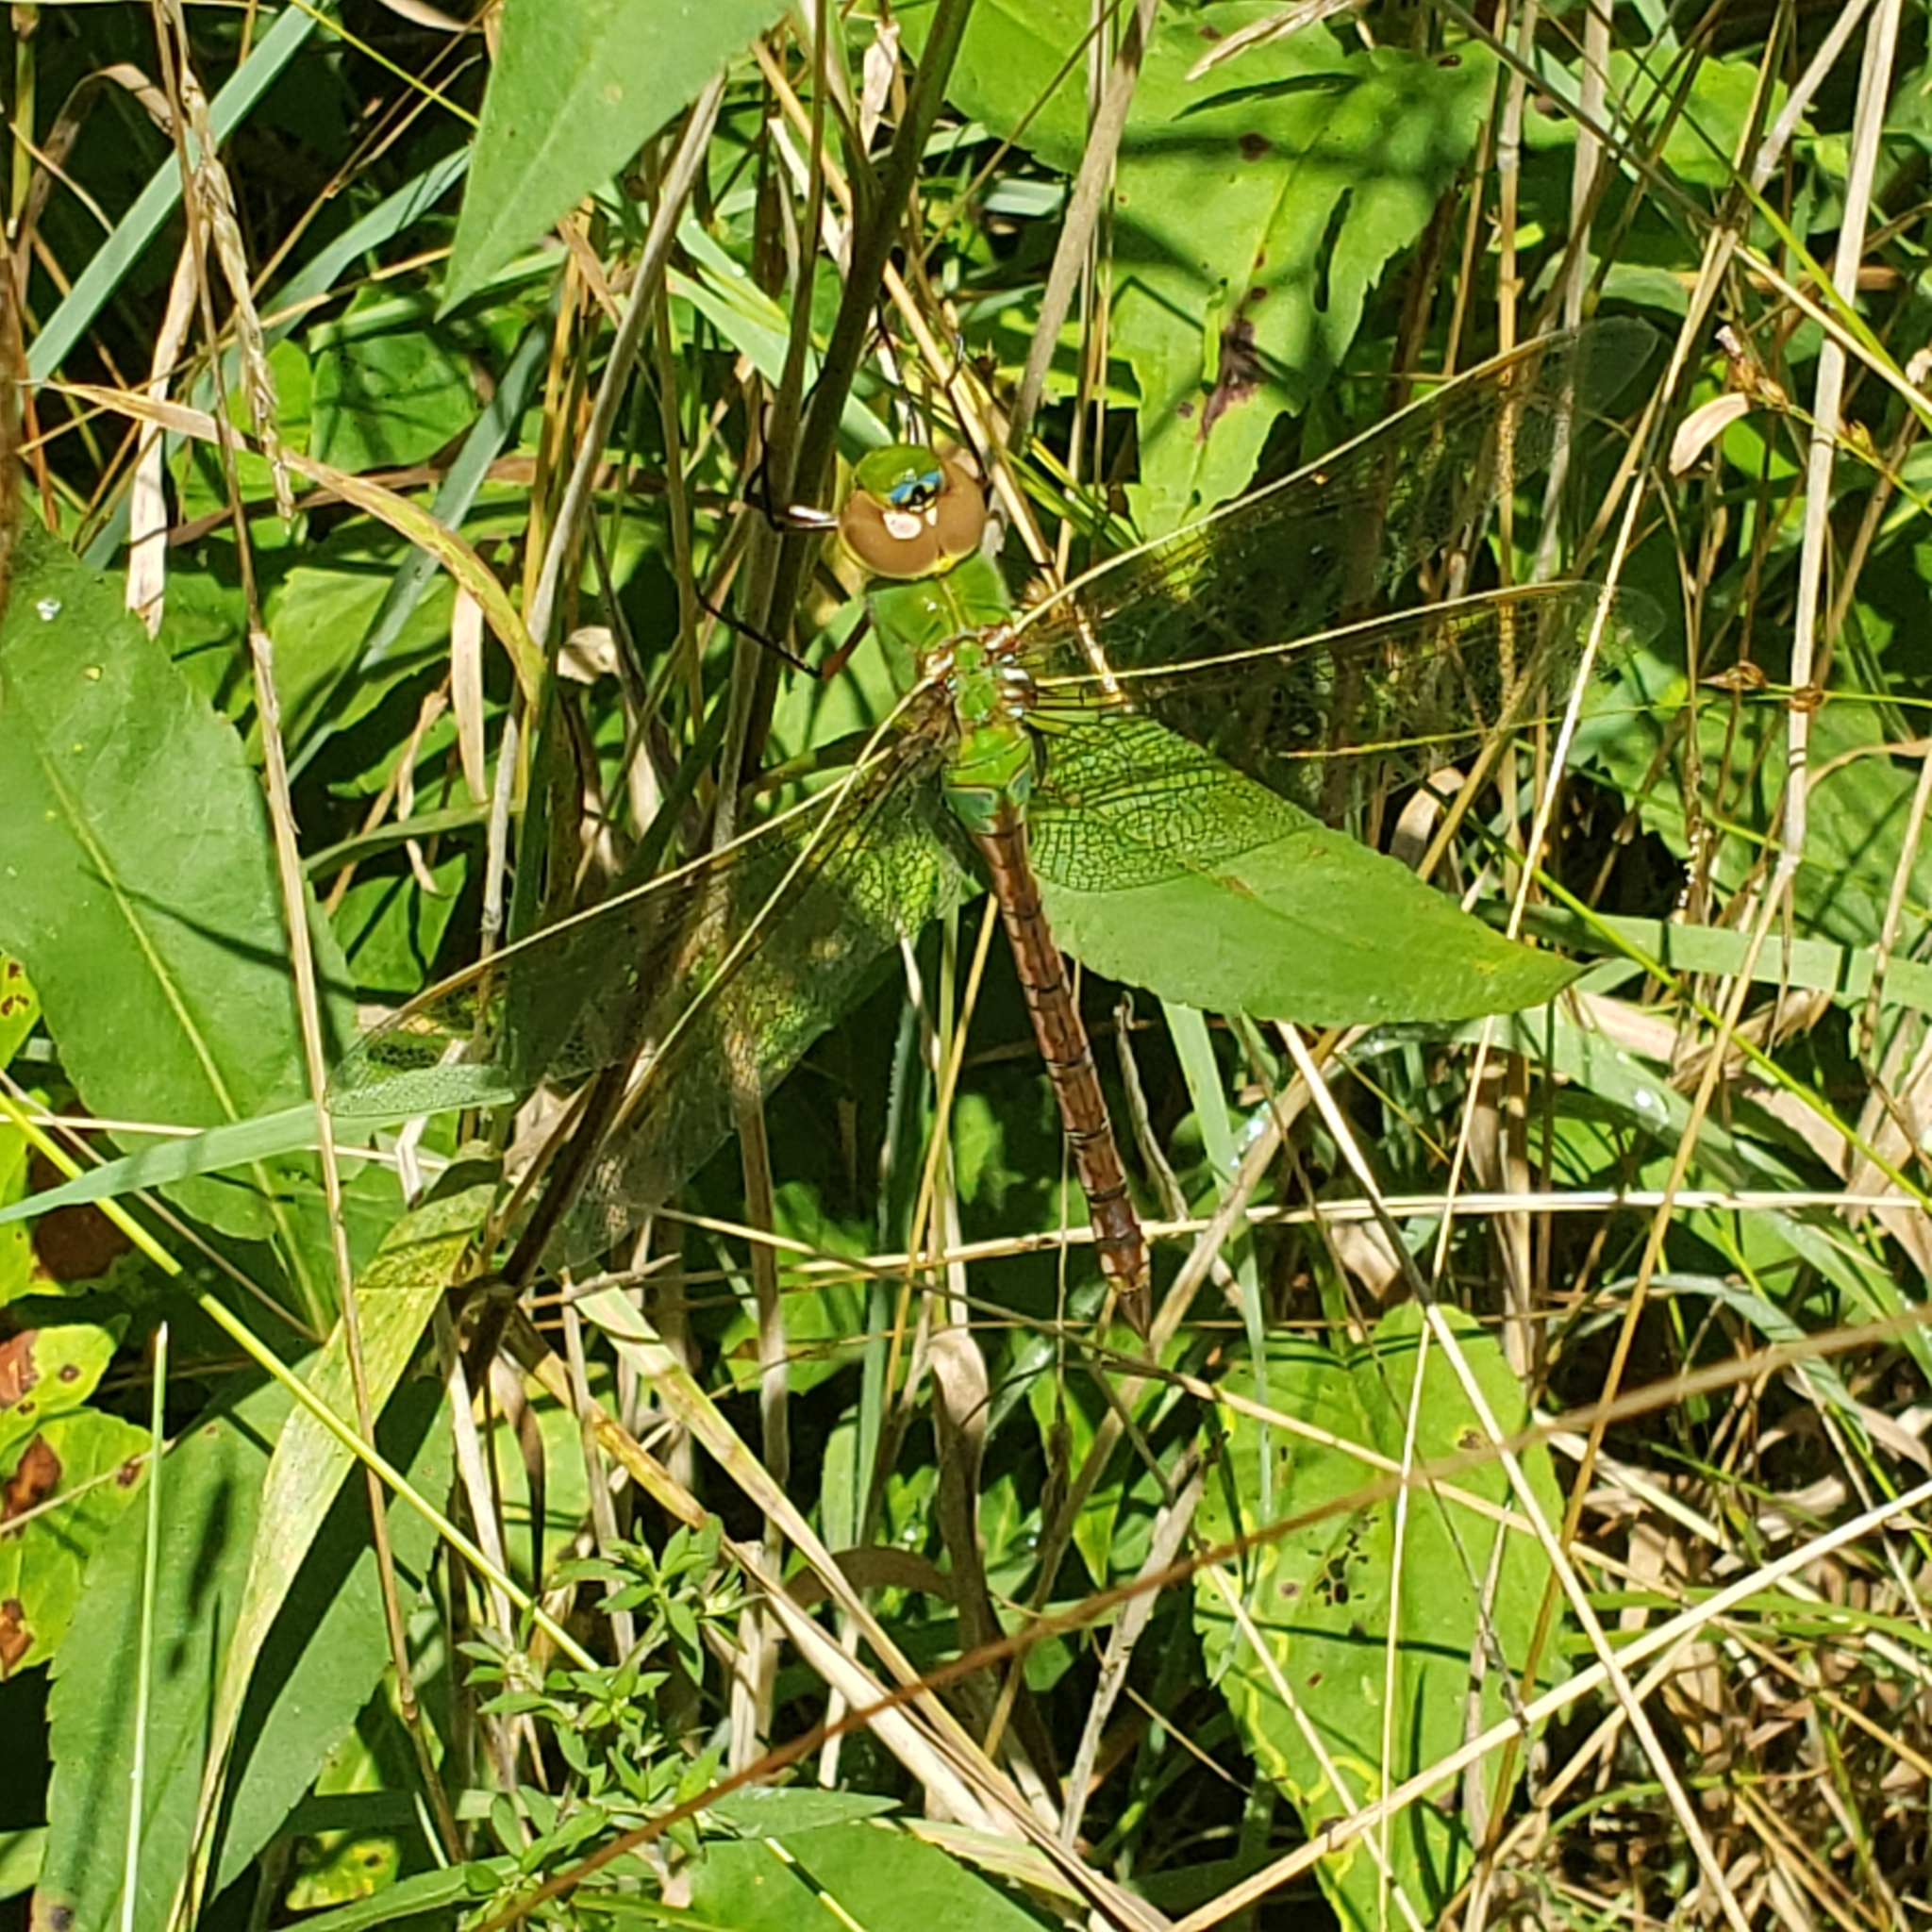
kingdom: Animalia
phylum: Arthropoda
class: Insecta
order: Odonata
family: Aeshnidae
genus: Anax
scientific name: Anax junius
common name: Common green darner
